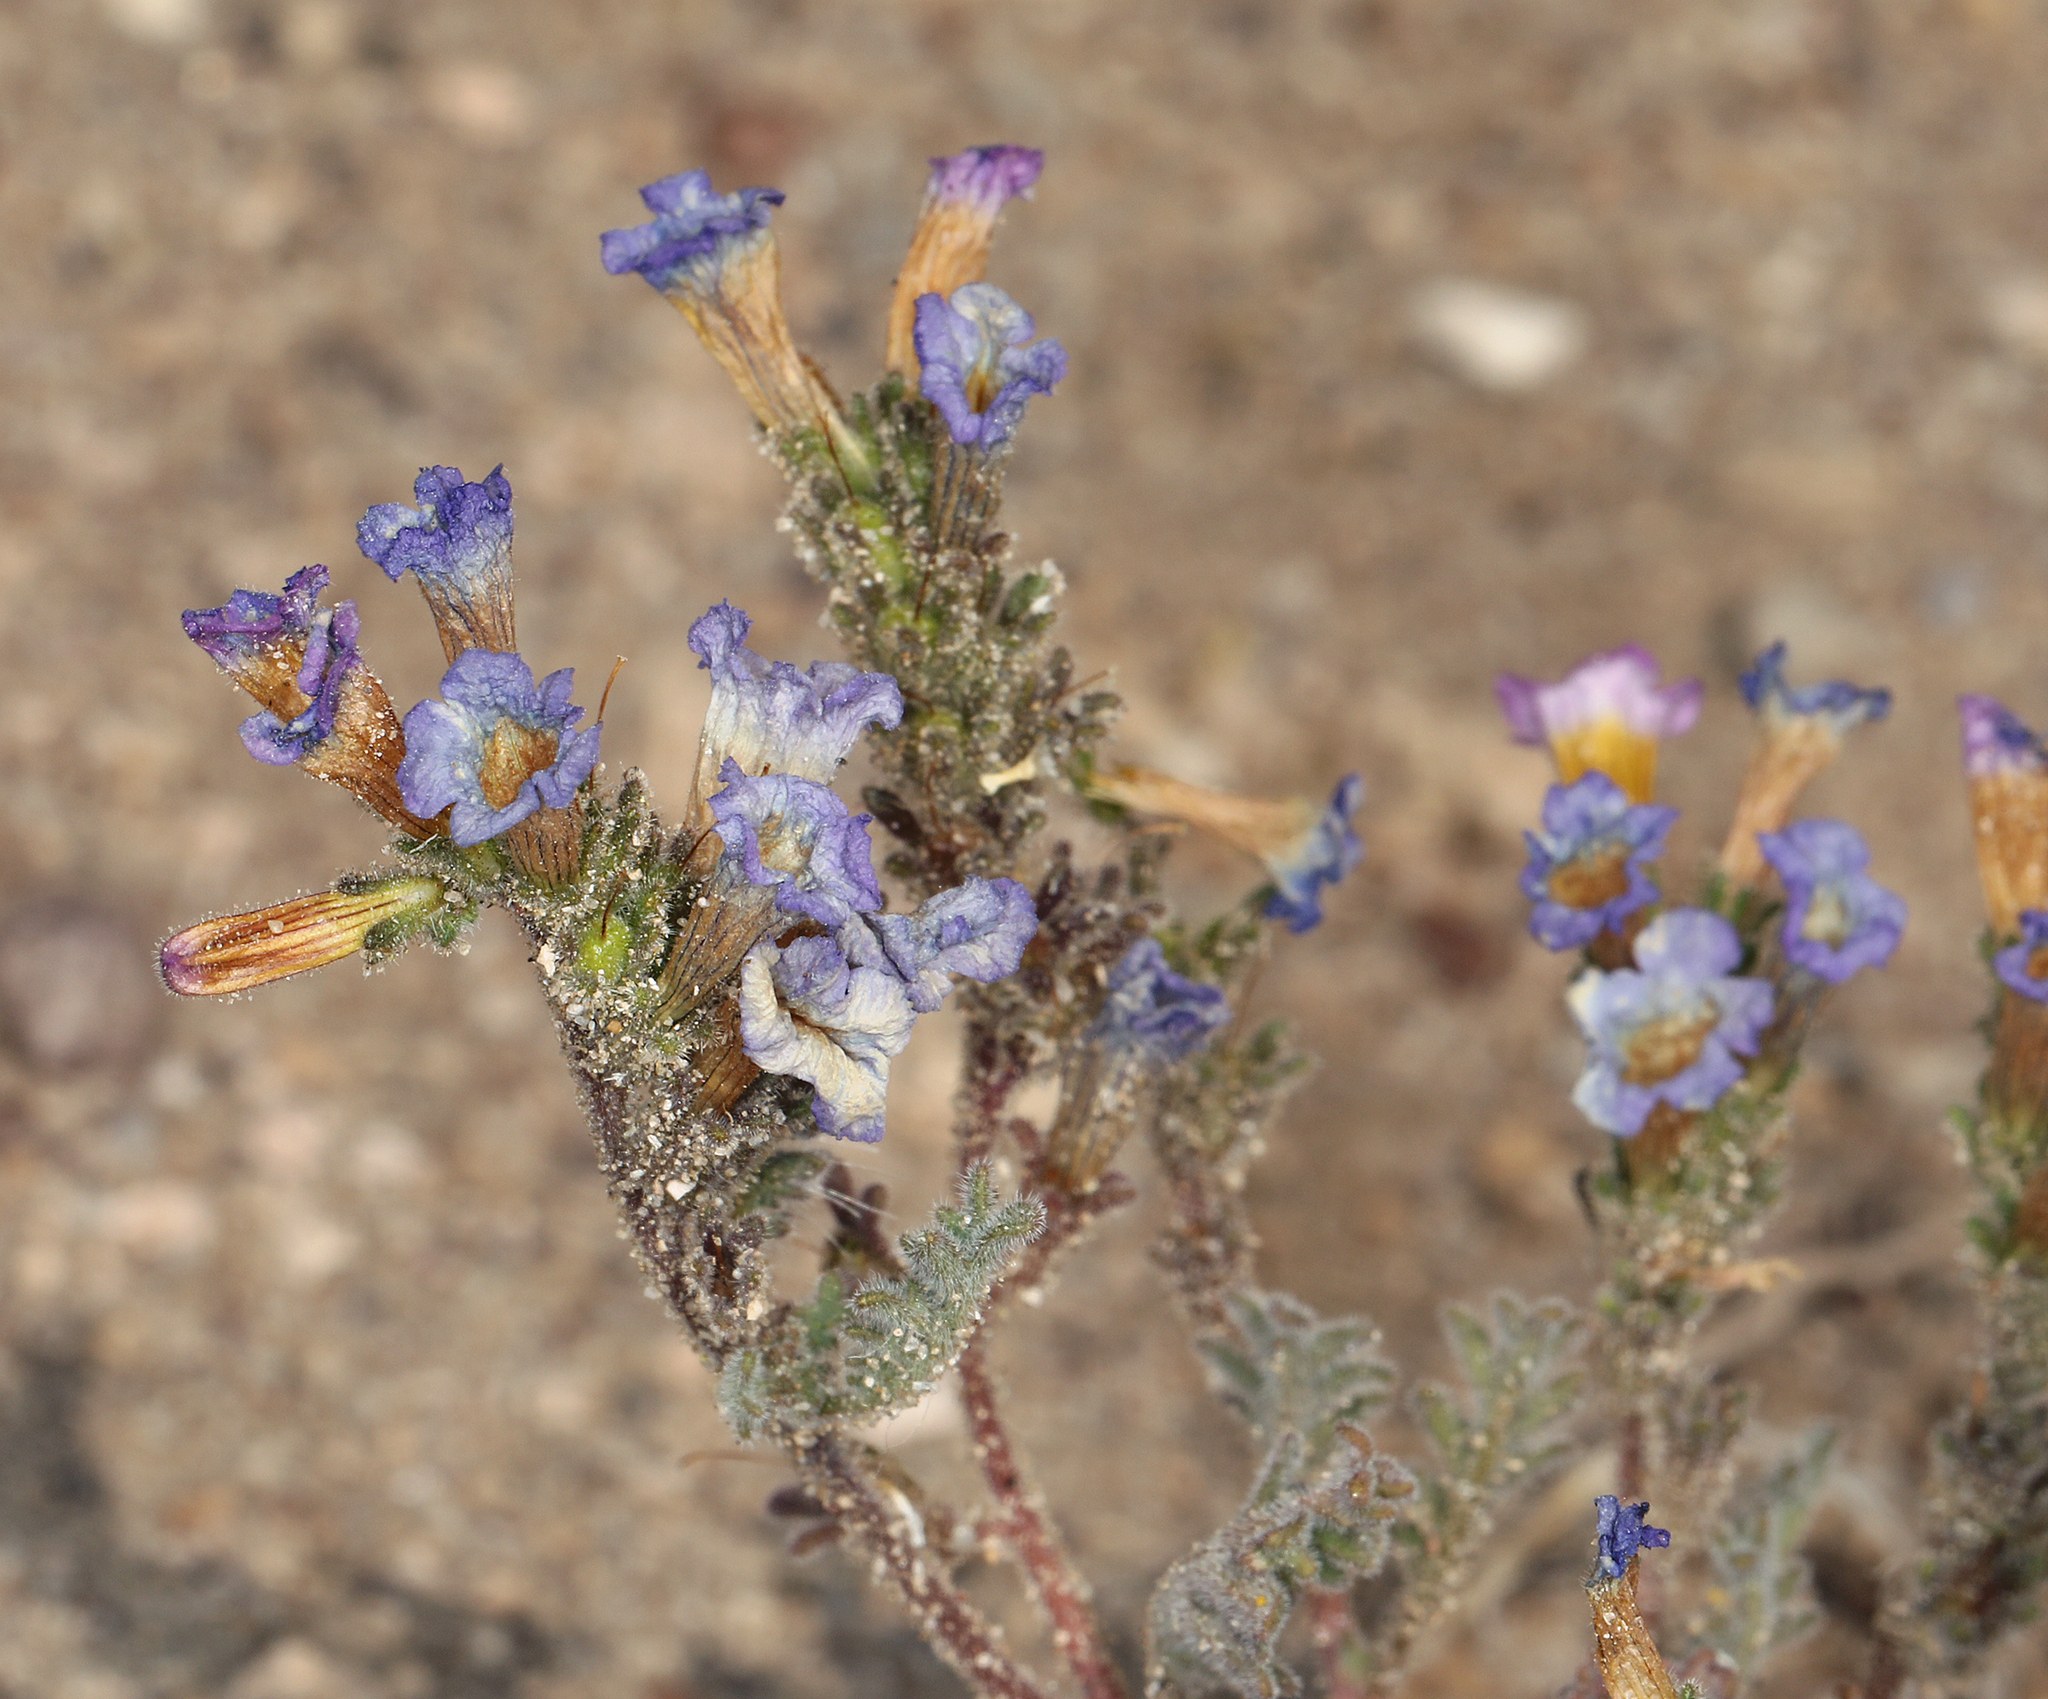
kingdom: Plantae
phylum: Tracheophyta
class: Magnoliopsida
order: Boraginales
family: Hydrophyllaceae
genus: Phacelia
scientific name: Phacelia bicolor
